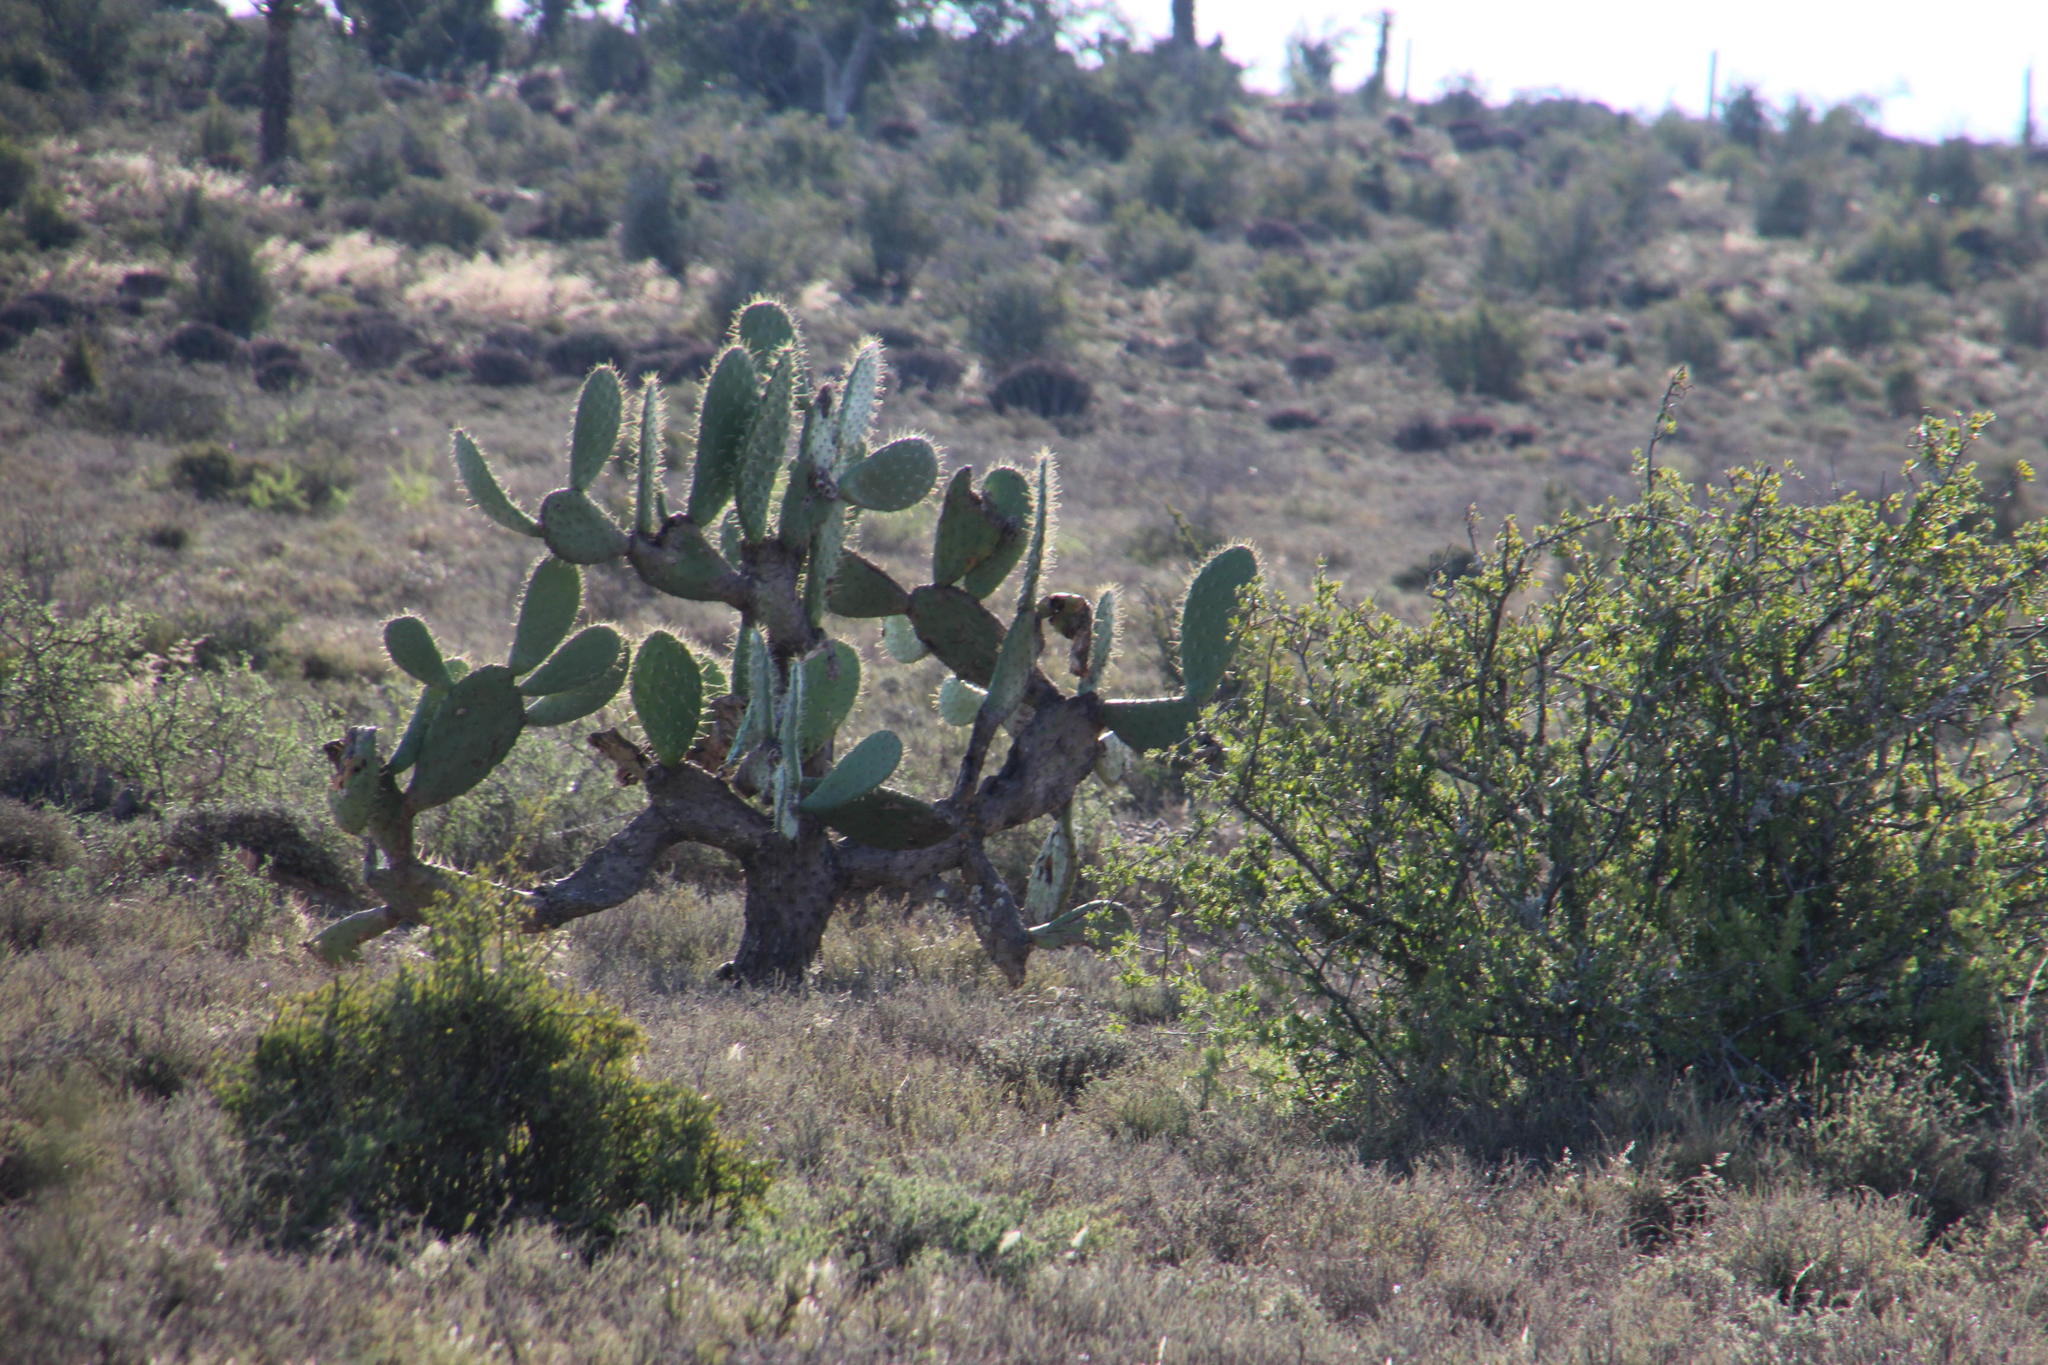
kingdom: Plantae
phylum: Tracheophyta
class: Magnoliopsida
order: Caryophyllales
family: Cactaceae
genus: Opuntia
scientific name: Opuntia ficus-indica
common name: Barbary fig
